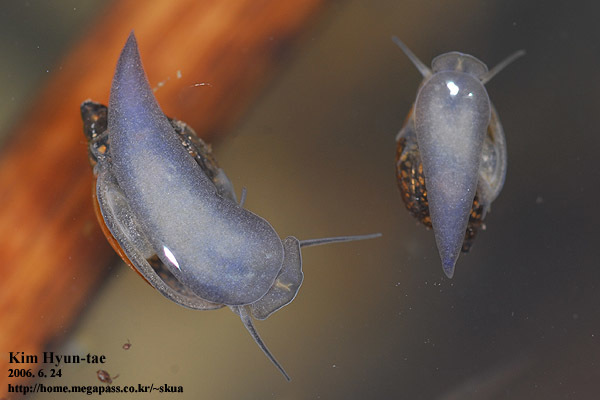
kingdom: Animalia
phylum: Mollusca
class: Gastropoda
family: Physidae
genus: Physella
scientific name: Physella
